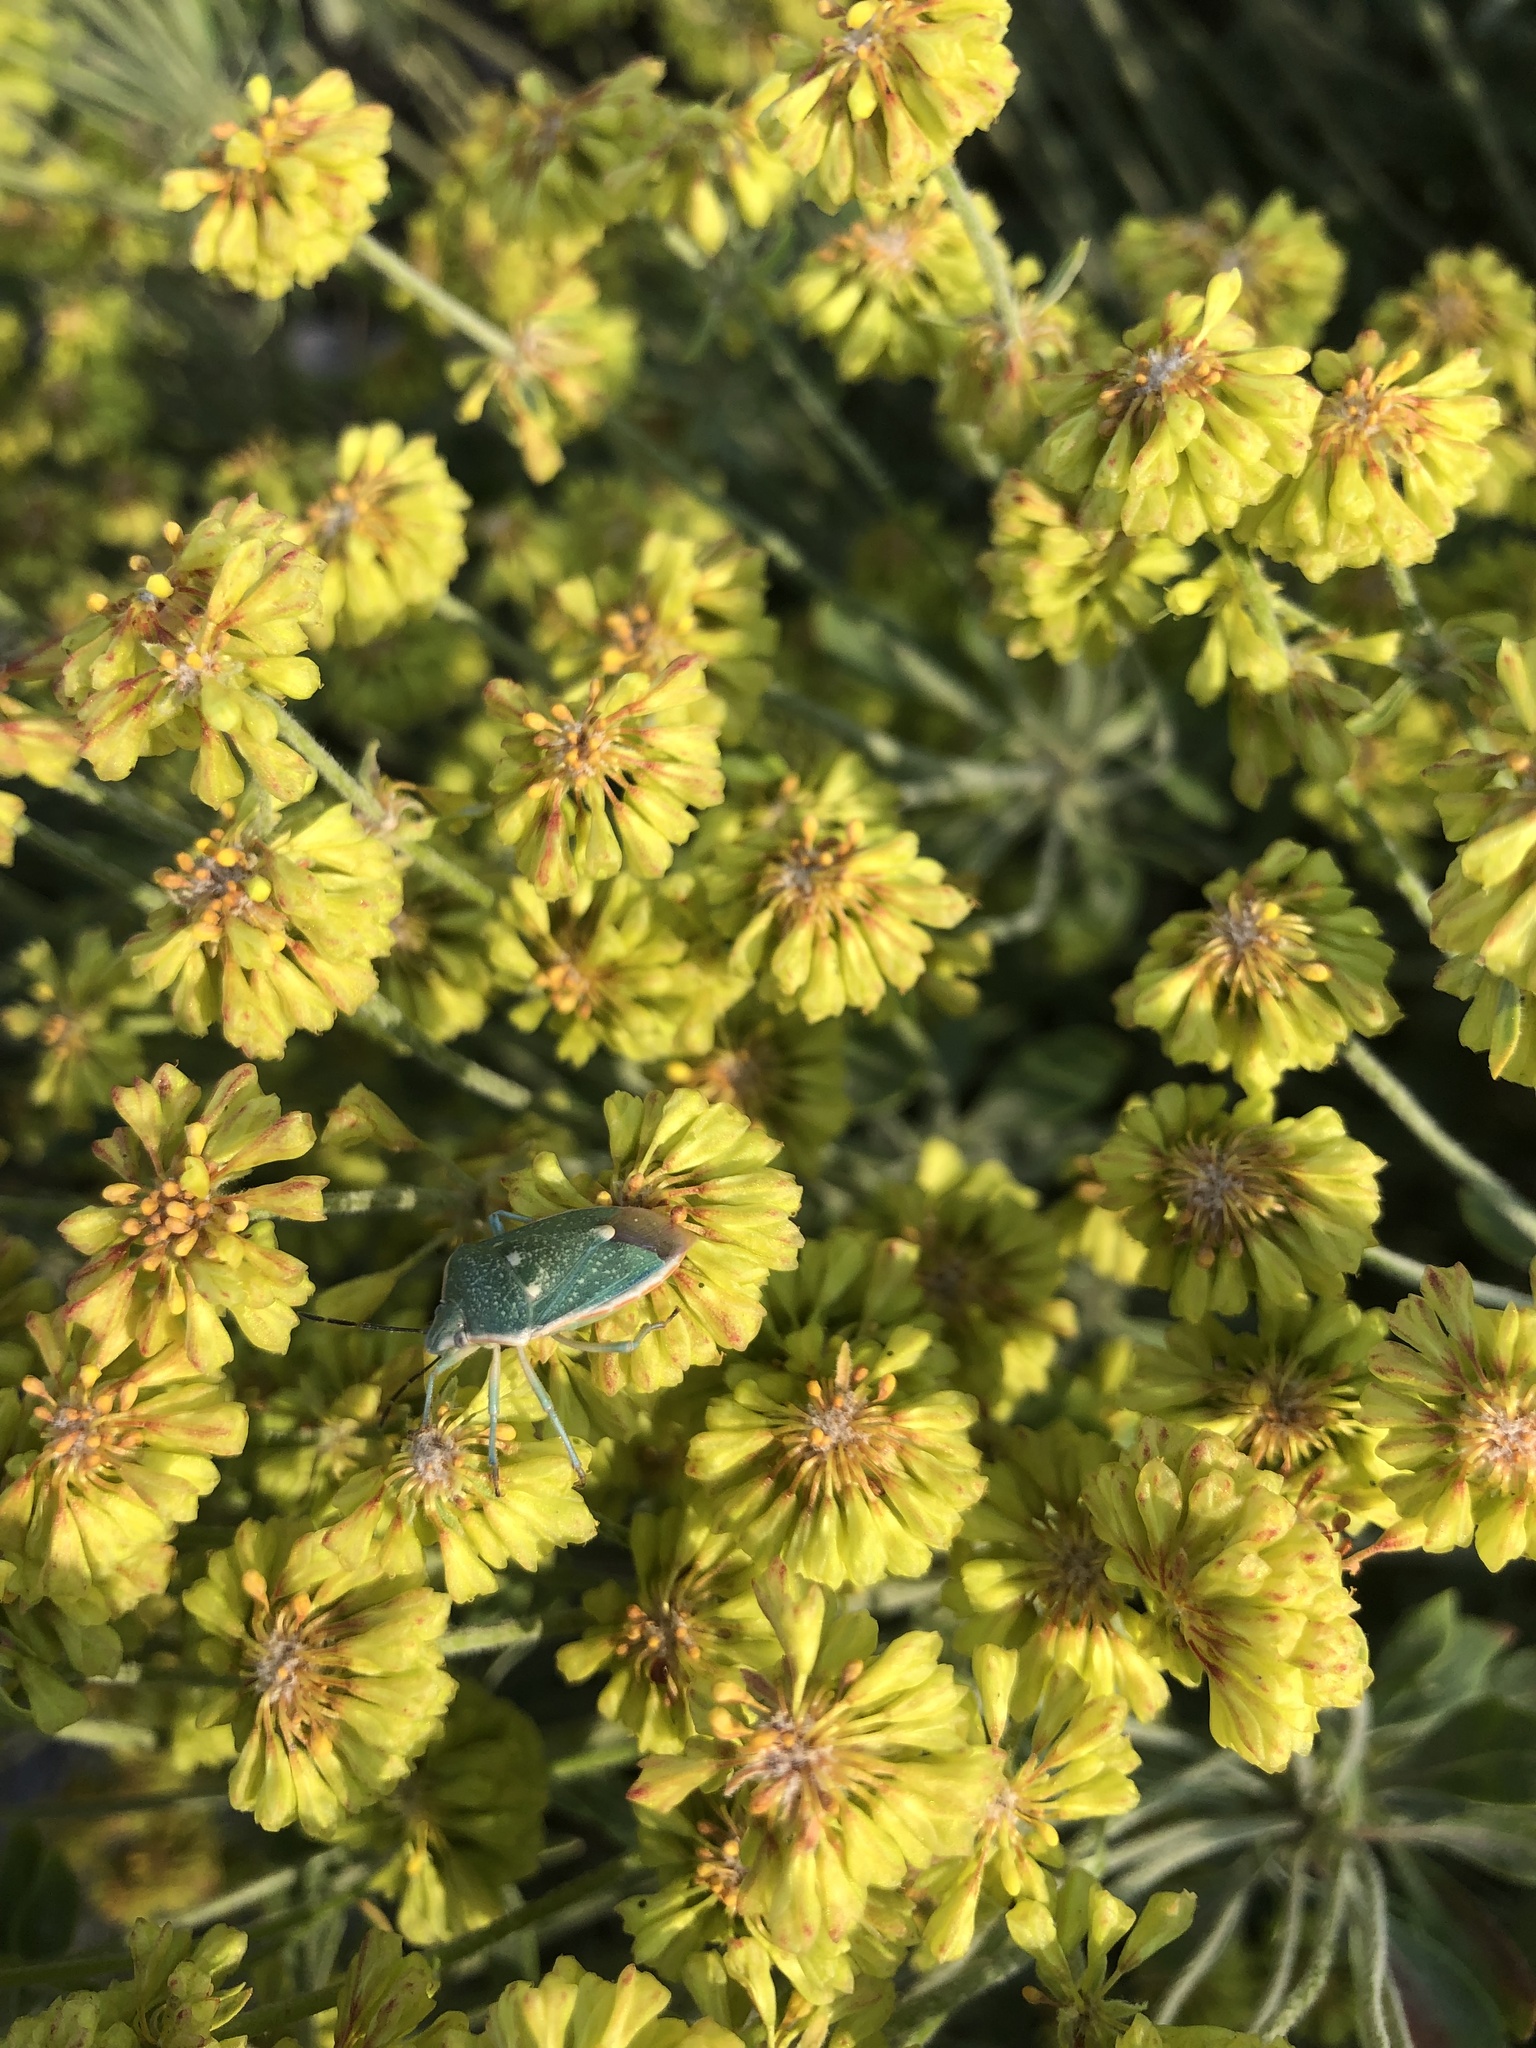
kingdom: Animalia
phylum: Arthropoda
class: Insecta
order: Hemiptera
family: Pentatomidae
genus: Chlorochroa
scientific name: Chlorochroa sayi
